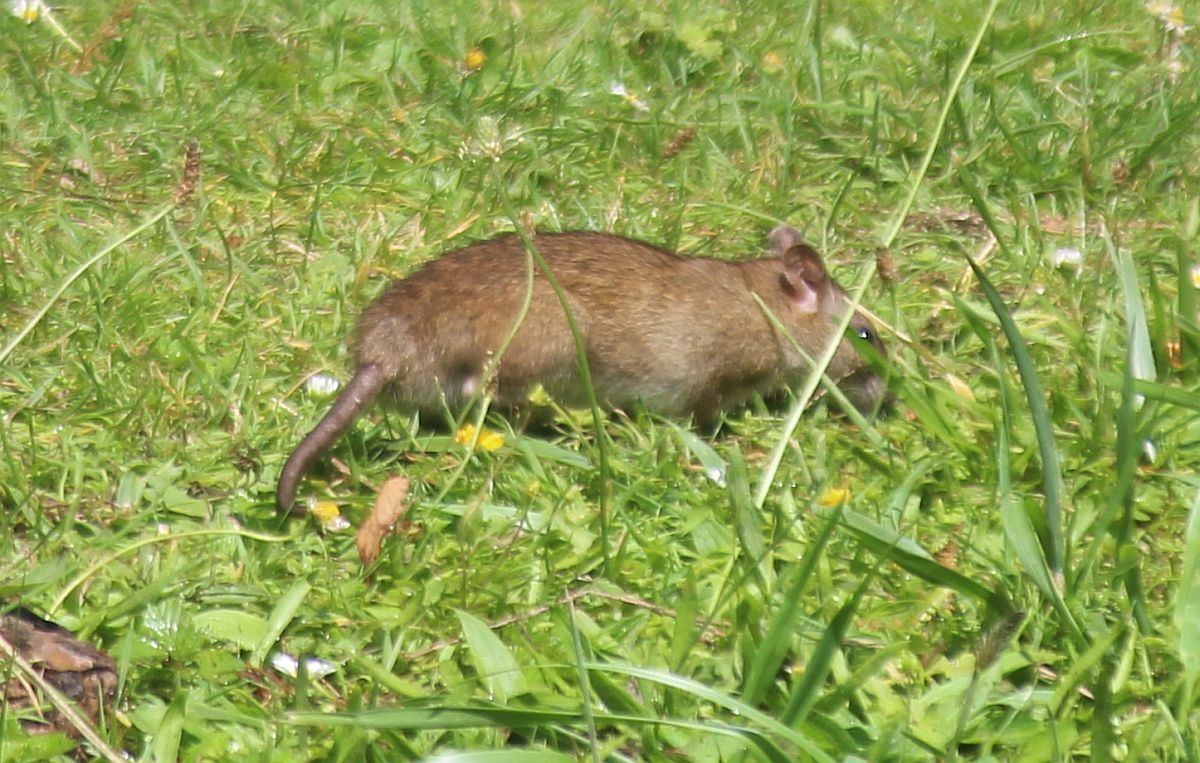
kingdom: Animalia
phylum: Chordata
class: Mammalia
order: Rodentia
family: Muridae
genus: Rattus
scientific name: Rattus norvegicus
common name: Brown rat
